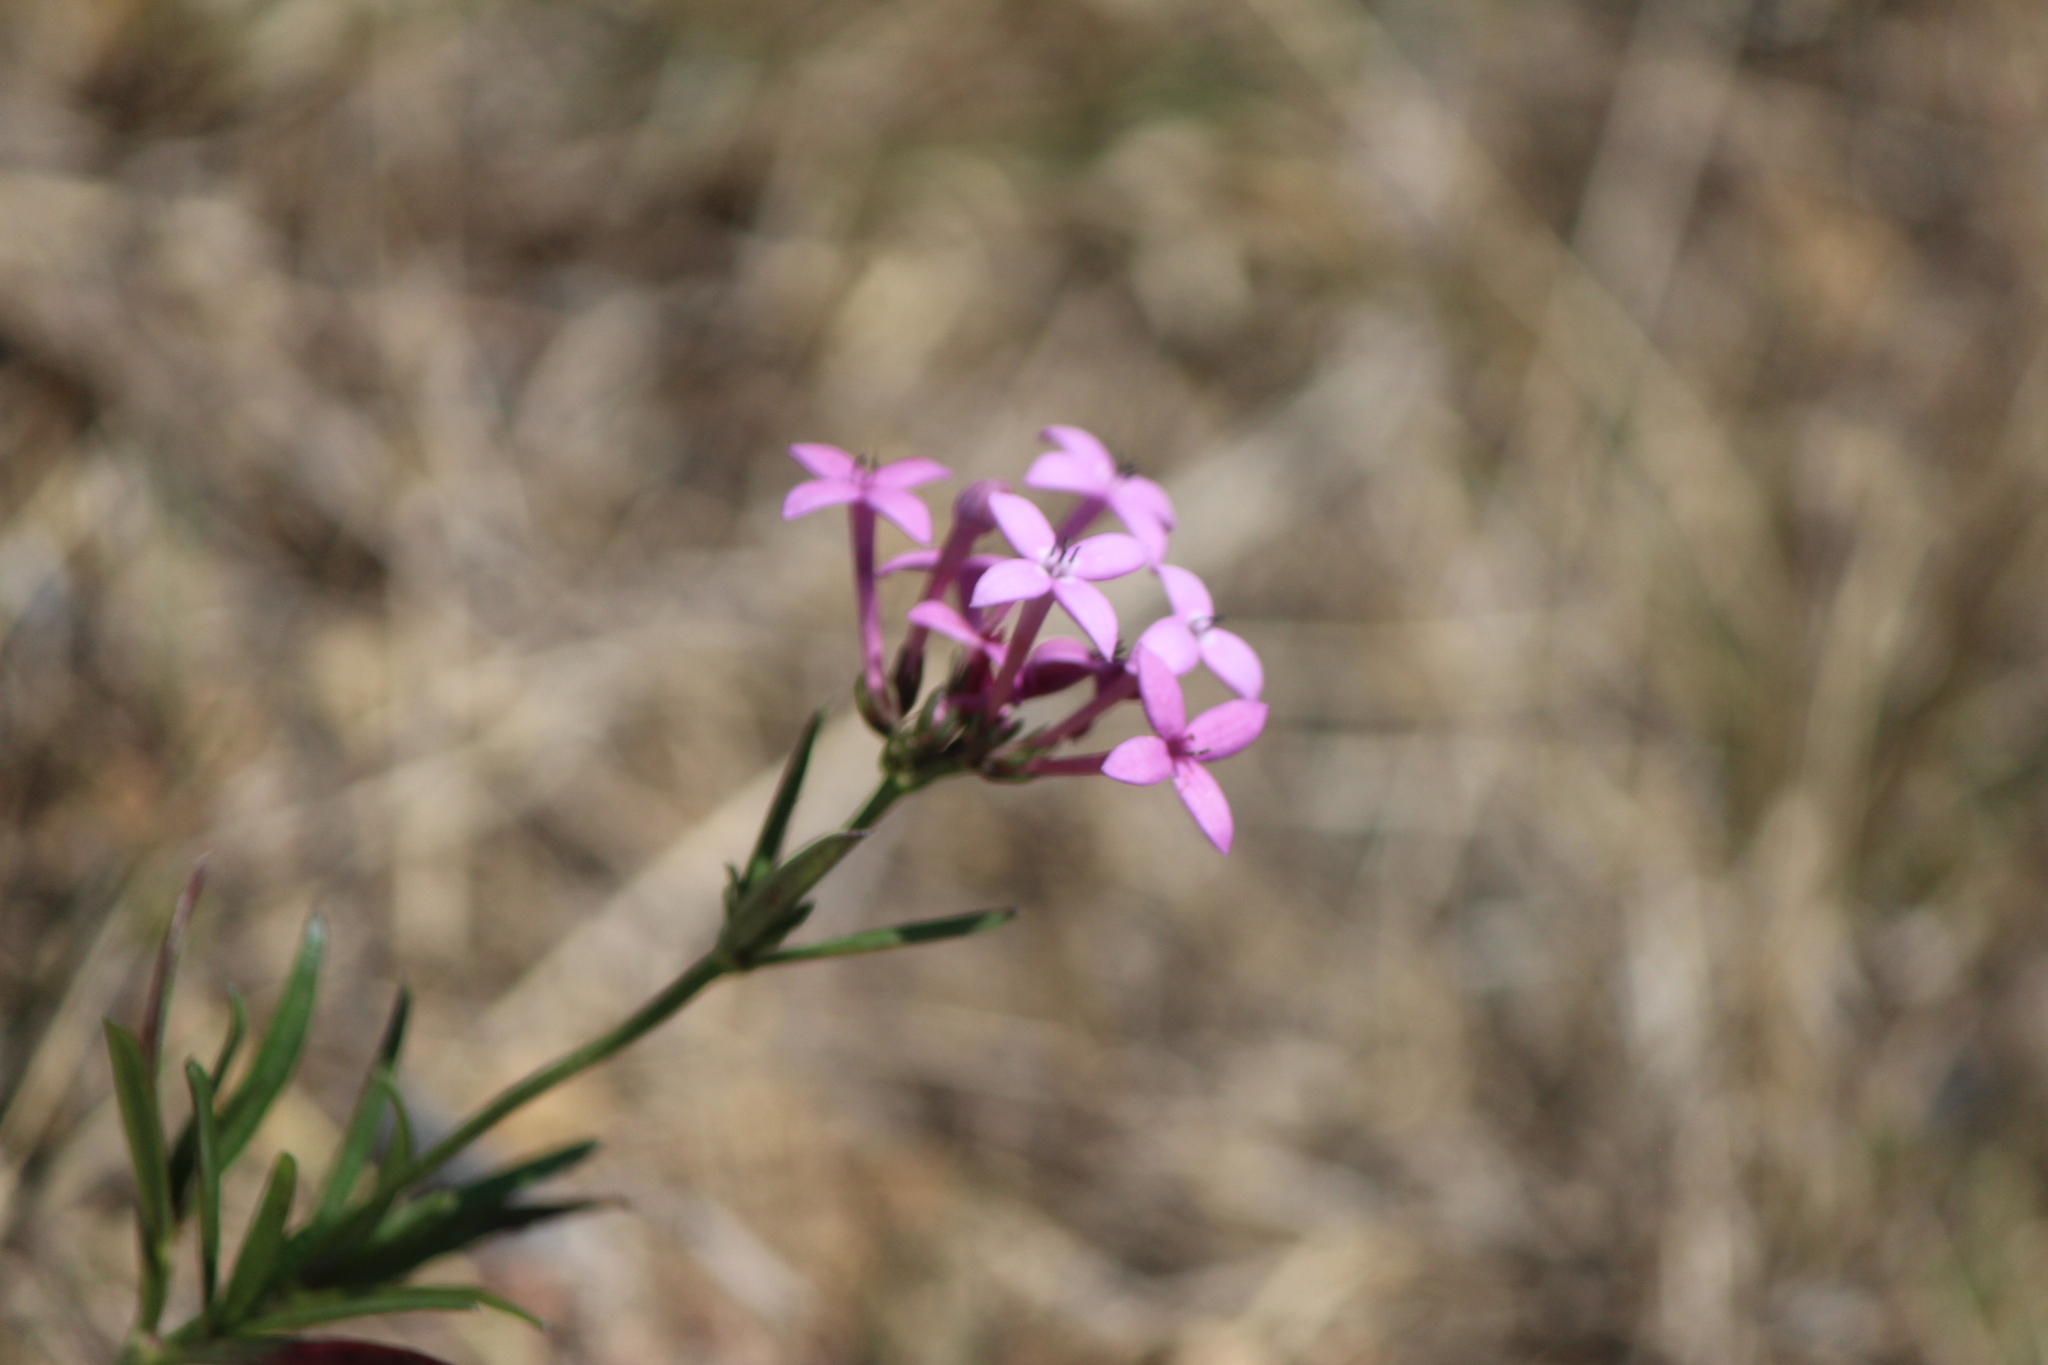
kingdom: Plantae
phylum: Tracheophyta
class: Magnoliopsida
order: Gentianales
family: Rubiaceae
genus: Crusea
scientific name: Crusea hispida
